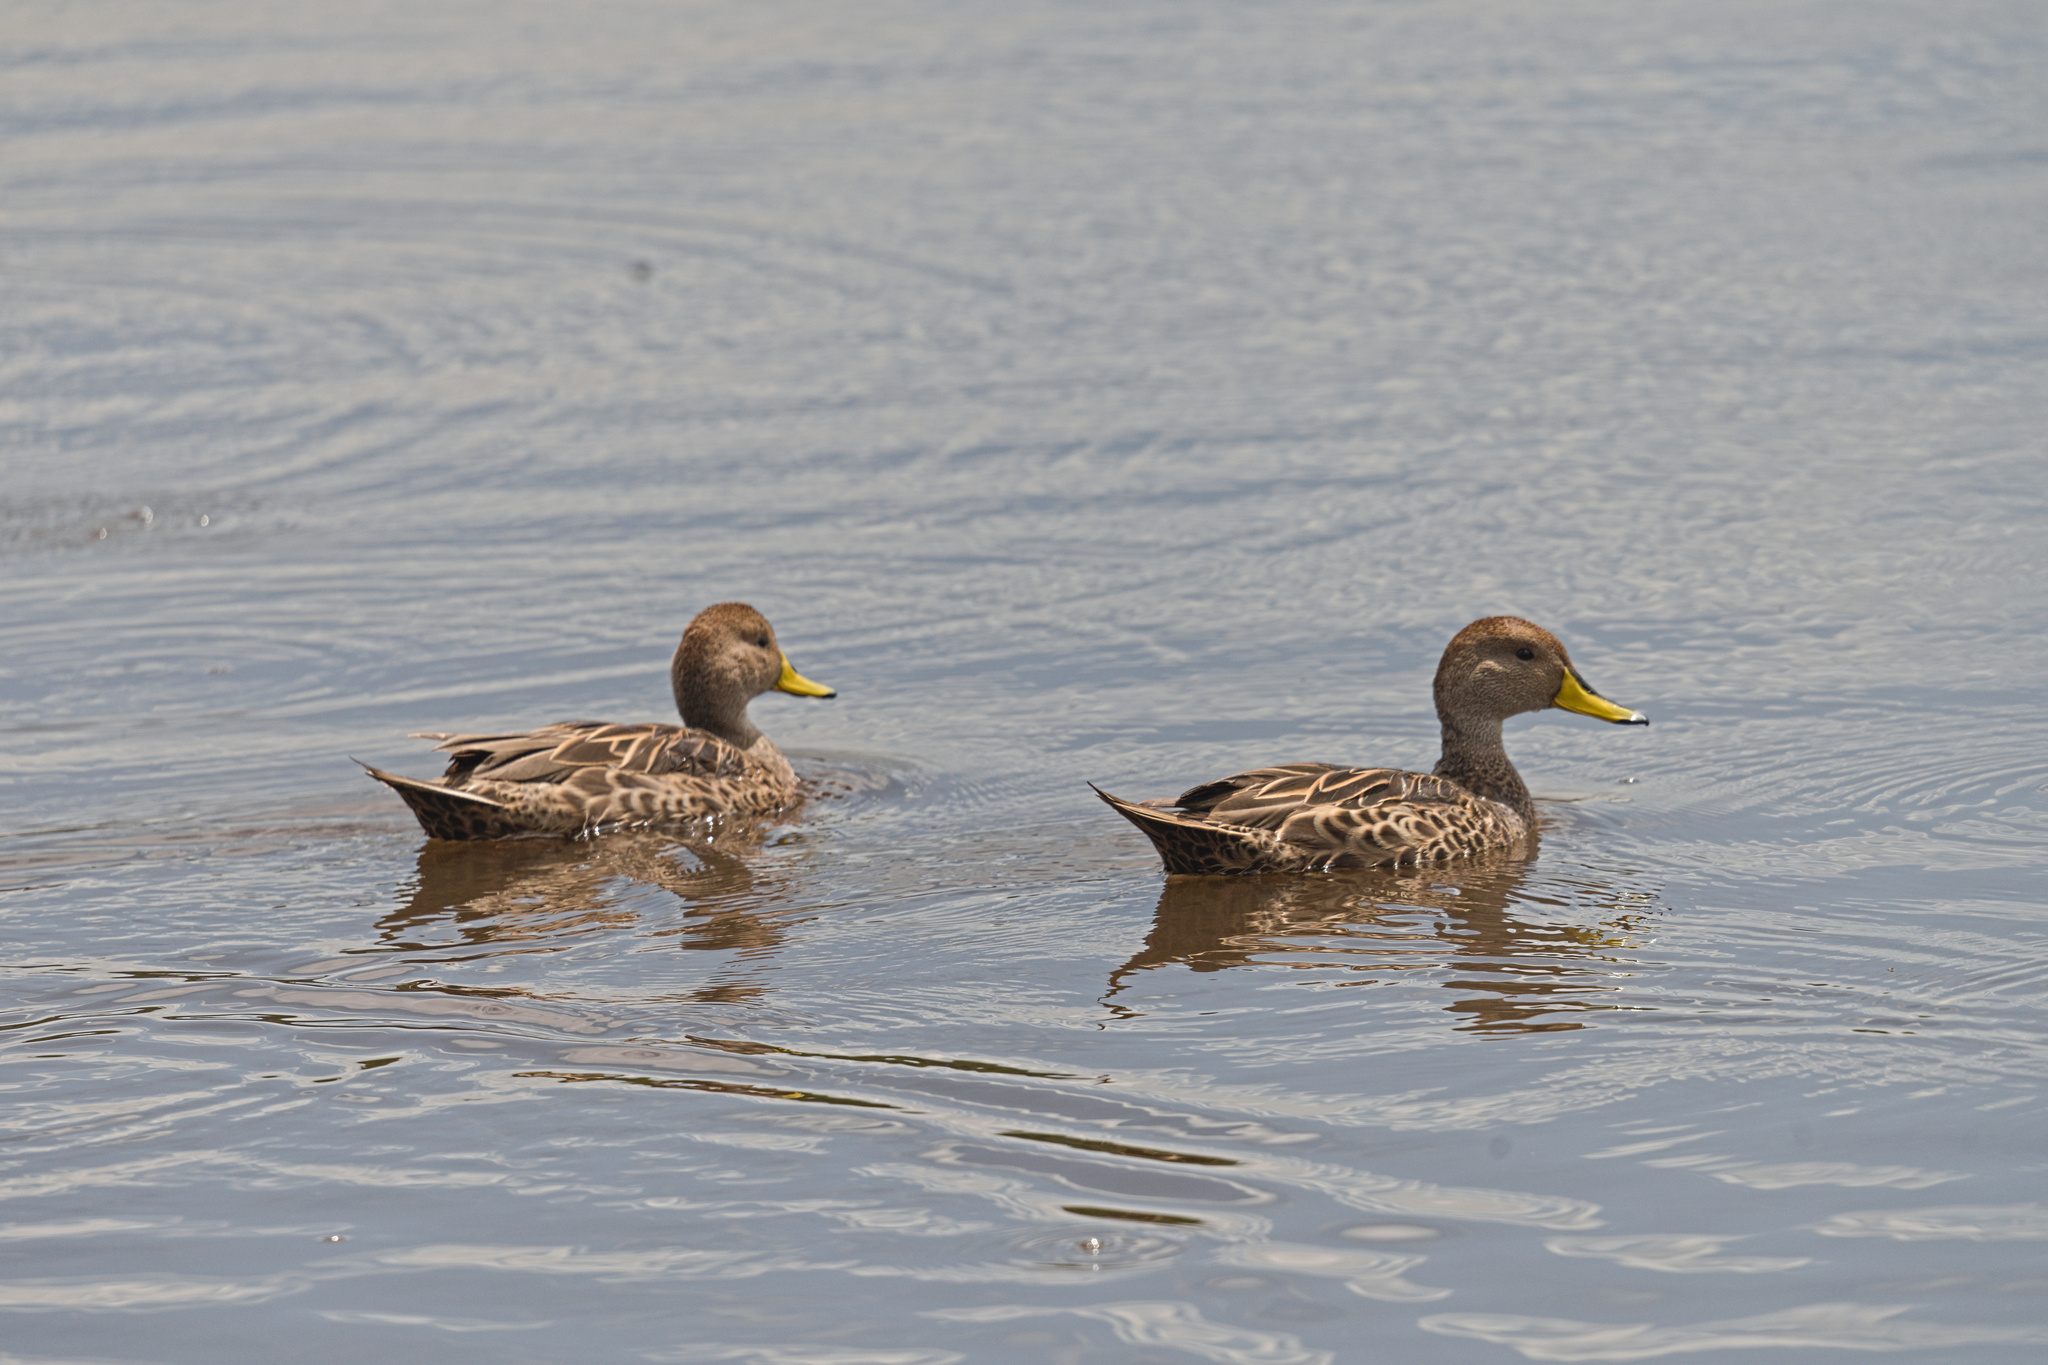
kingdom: Animalia
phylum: Chordata
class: Aves
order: Anseriformes
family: Anatidae
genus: Anas
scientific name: Anas georgica
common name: Yellow-billed pintail
